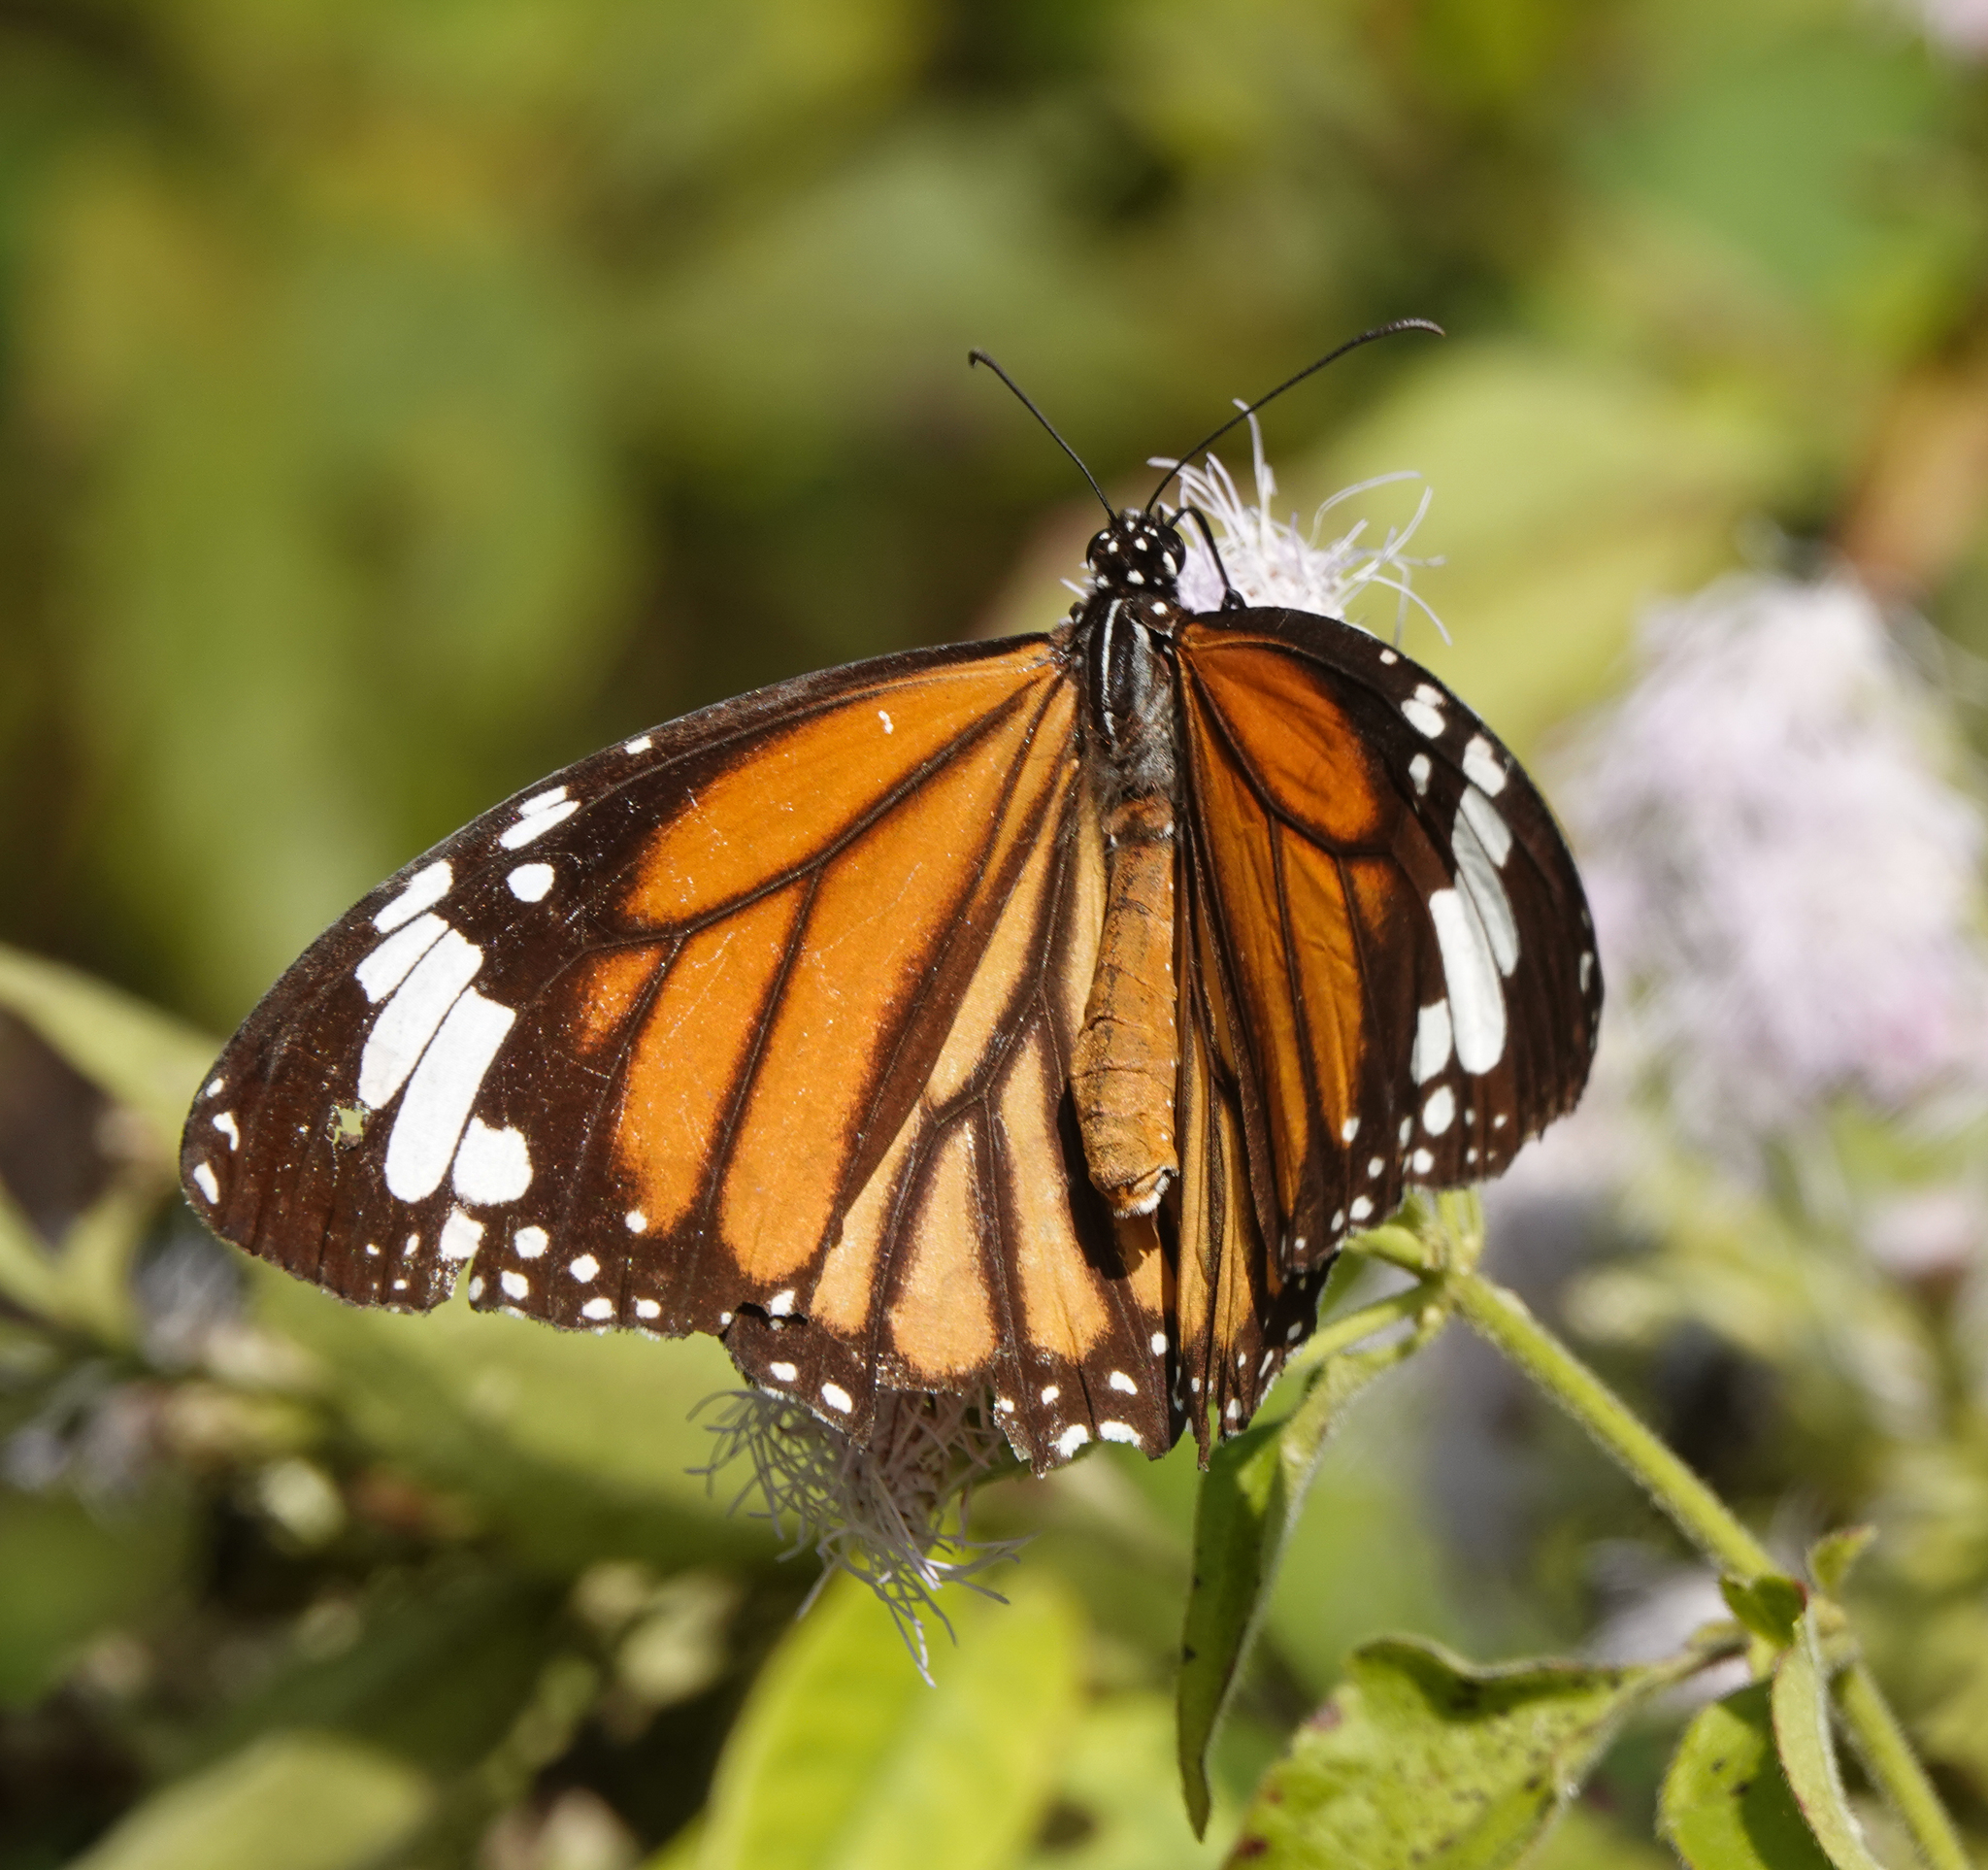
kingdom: Animalia
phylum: Arthropoda
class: Insecta
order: Lepidoptera
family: Nymphalidae
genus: Danaus
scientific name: Danaus genutia
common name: Common tiger butterfly
